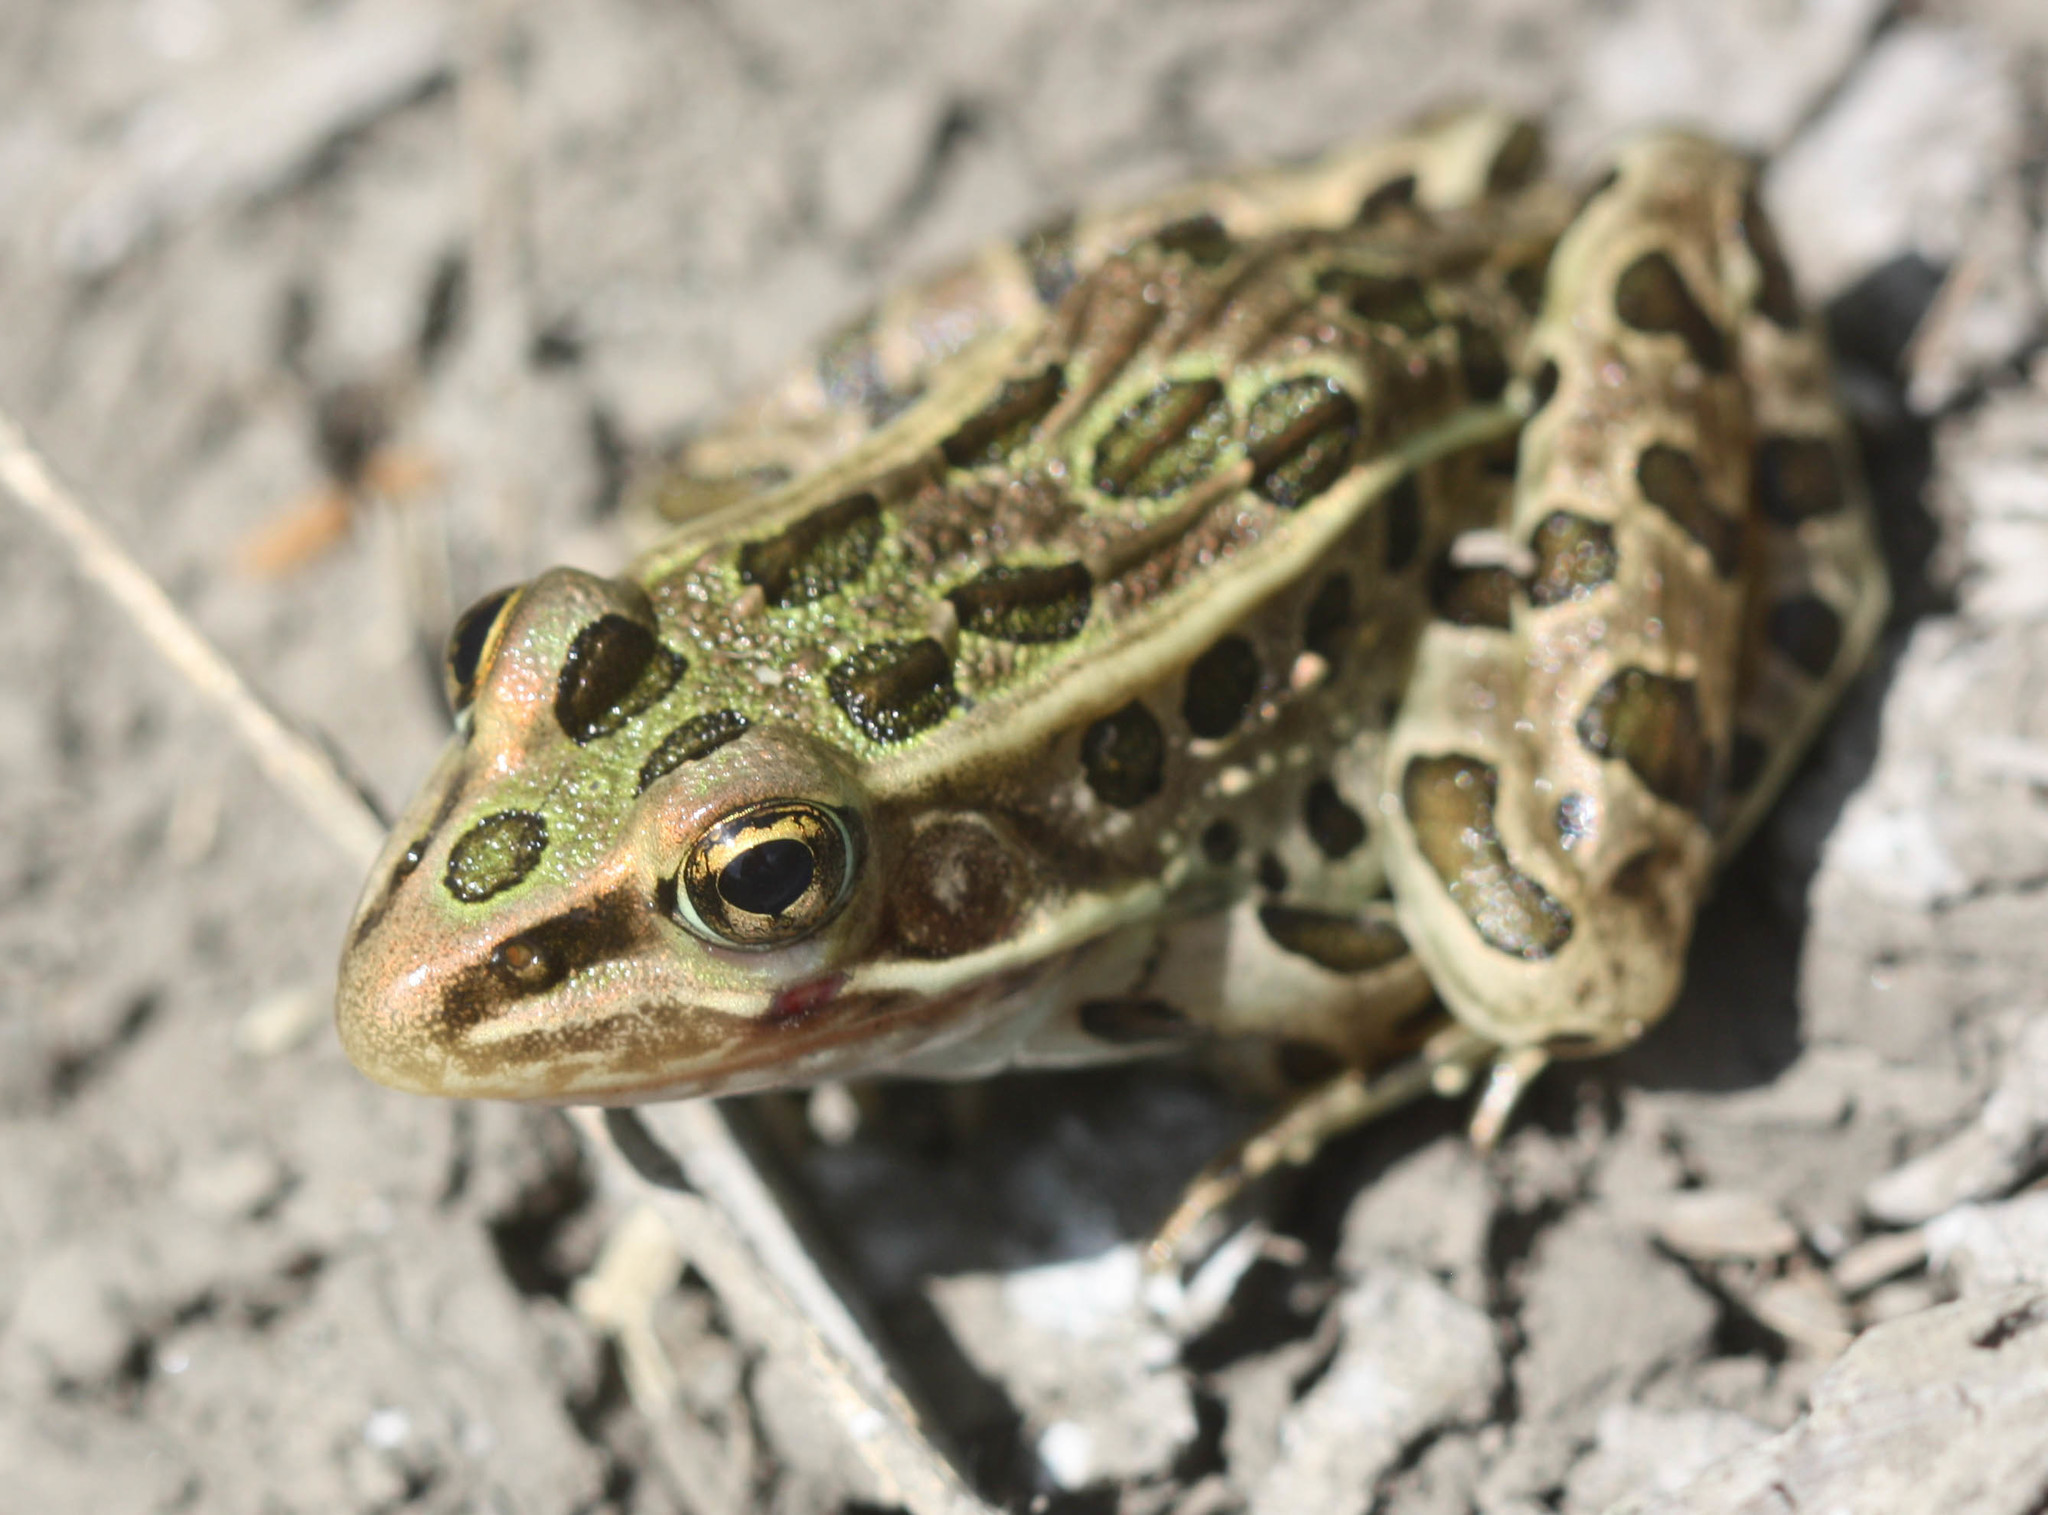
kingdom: Animalia
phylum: Chordata
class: Amphibia
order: Anura
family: Ranidae
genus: Lithobates
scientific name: Lithobates pipiens
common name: Northern leopard frog
